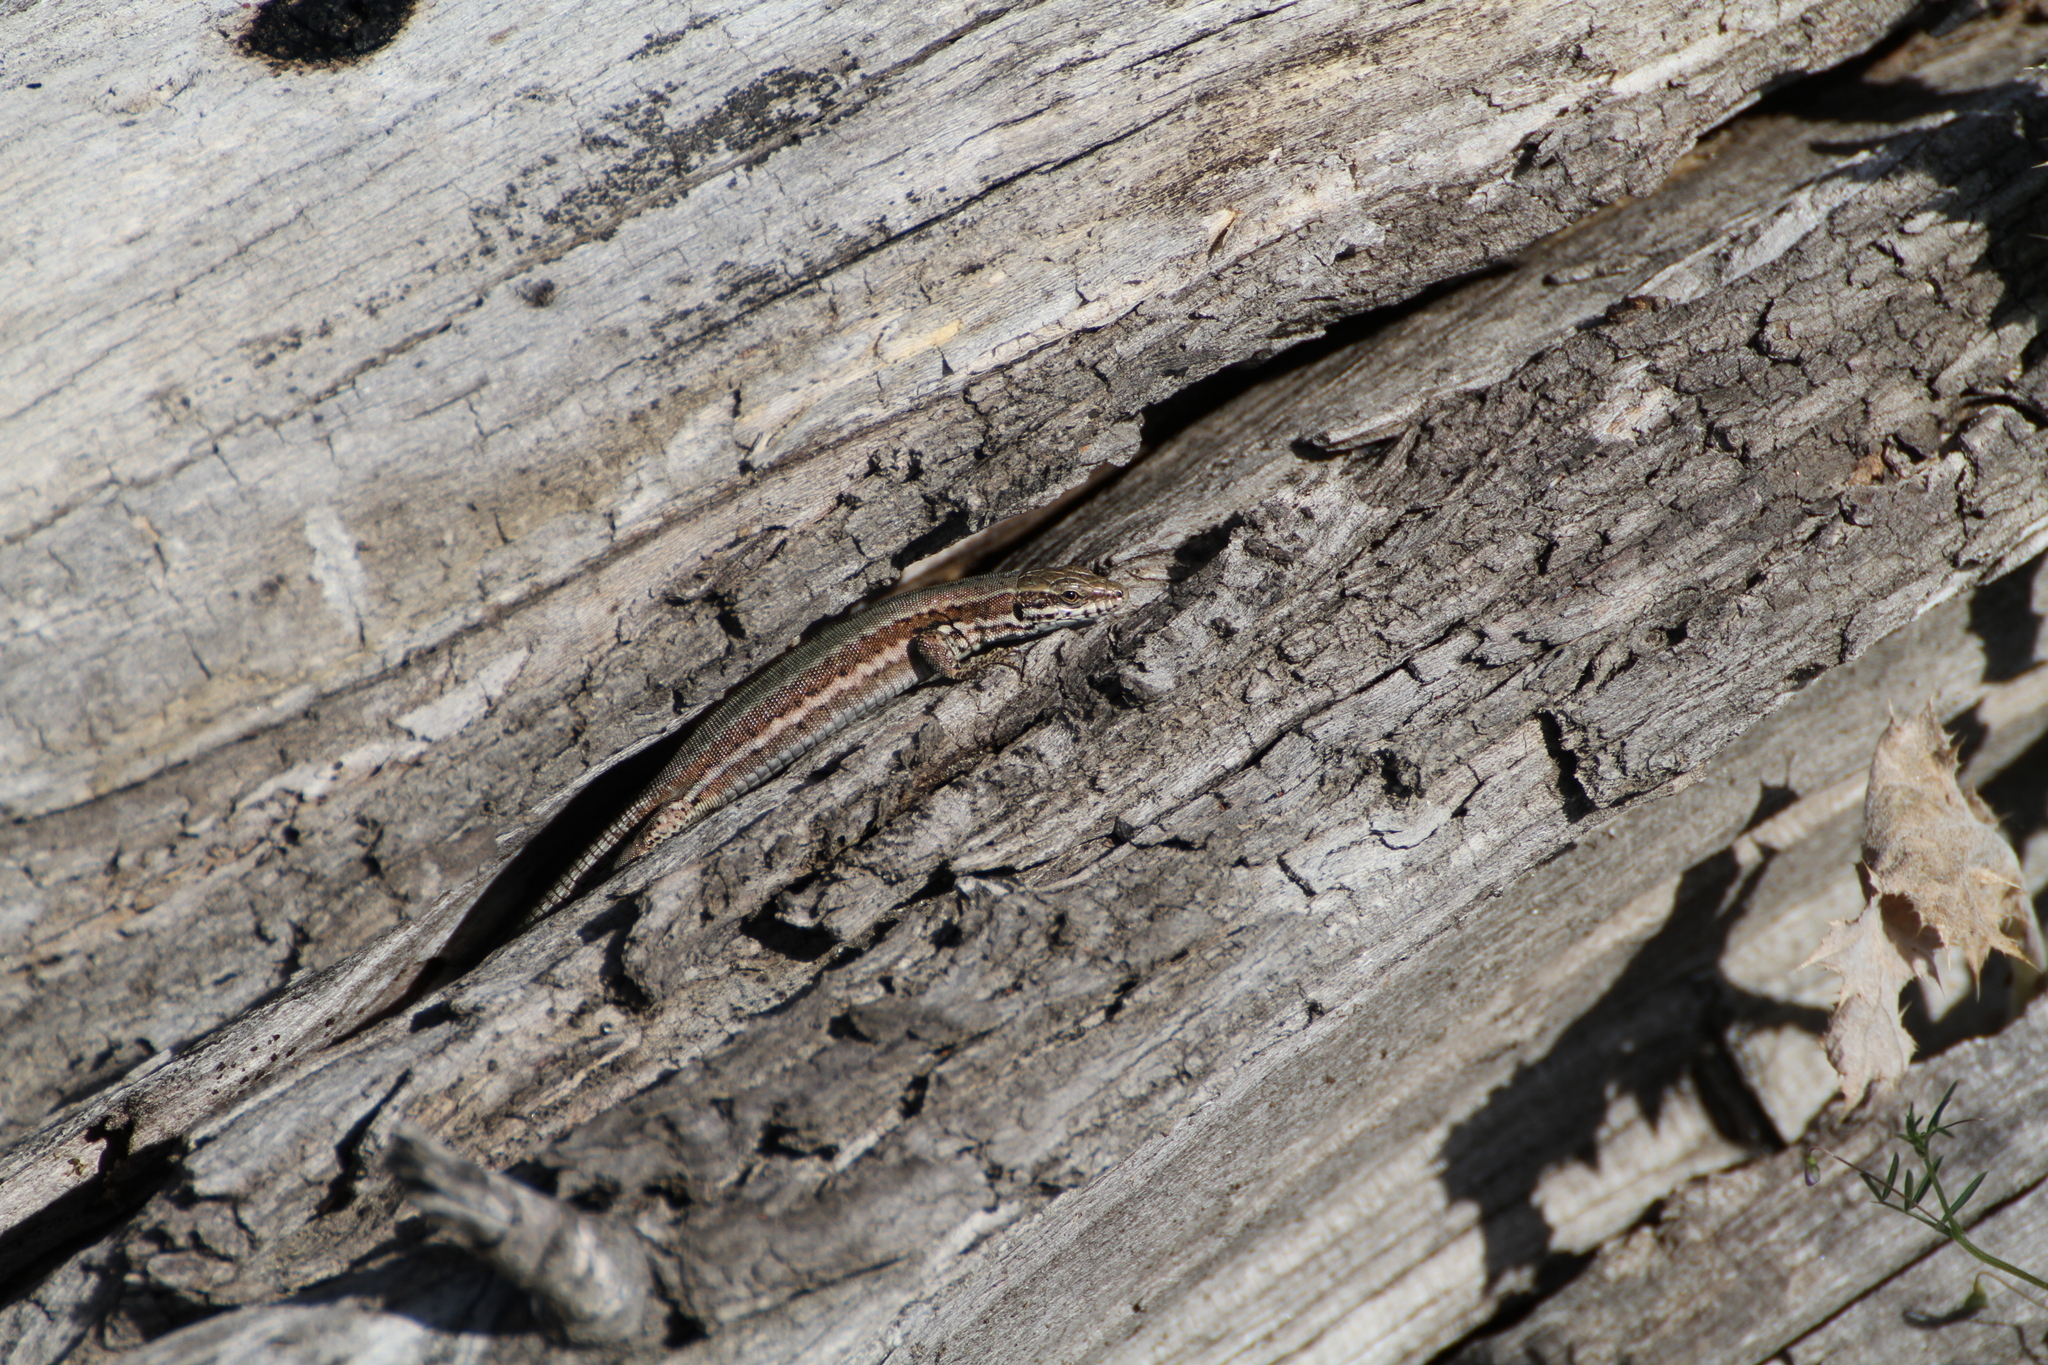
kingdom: Animalia
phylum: Chordata
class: Squamata
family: Lacertidae
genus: Podarcis
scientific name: Podarcis muralis
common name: Common wall lizard
